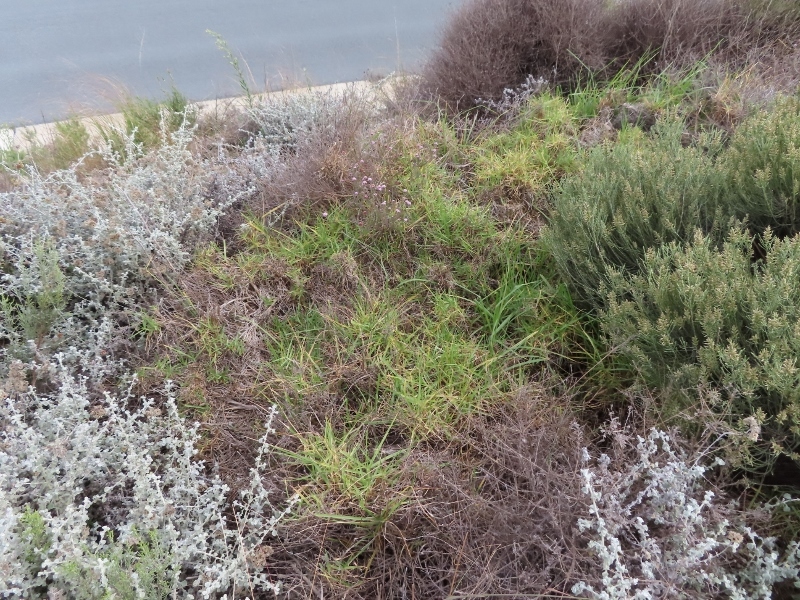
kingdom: Plantae
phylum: Tracheophyta
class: Liliopsida
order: Poales
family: Poaceae
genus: Cenchrus
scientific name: Cenchrus clandestinus
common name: Kikuyugrass
